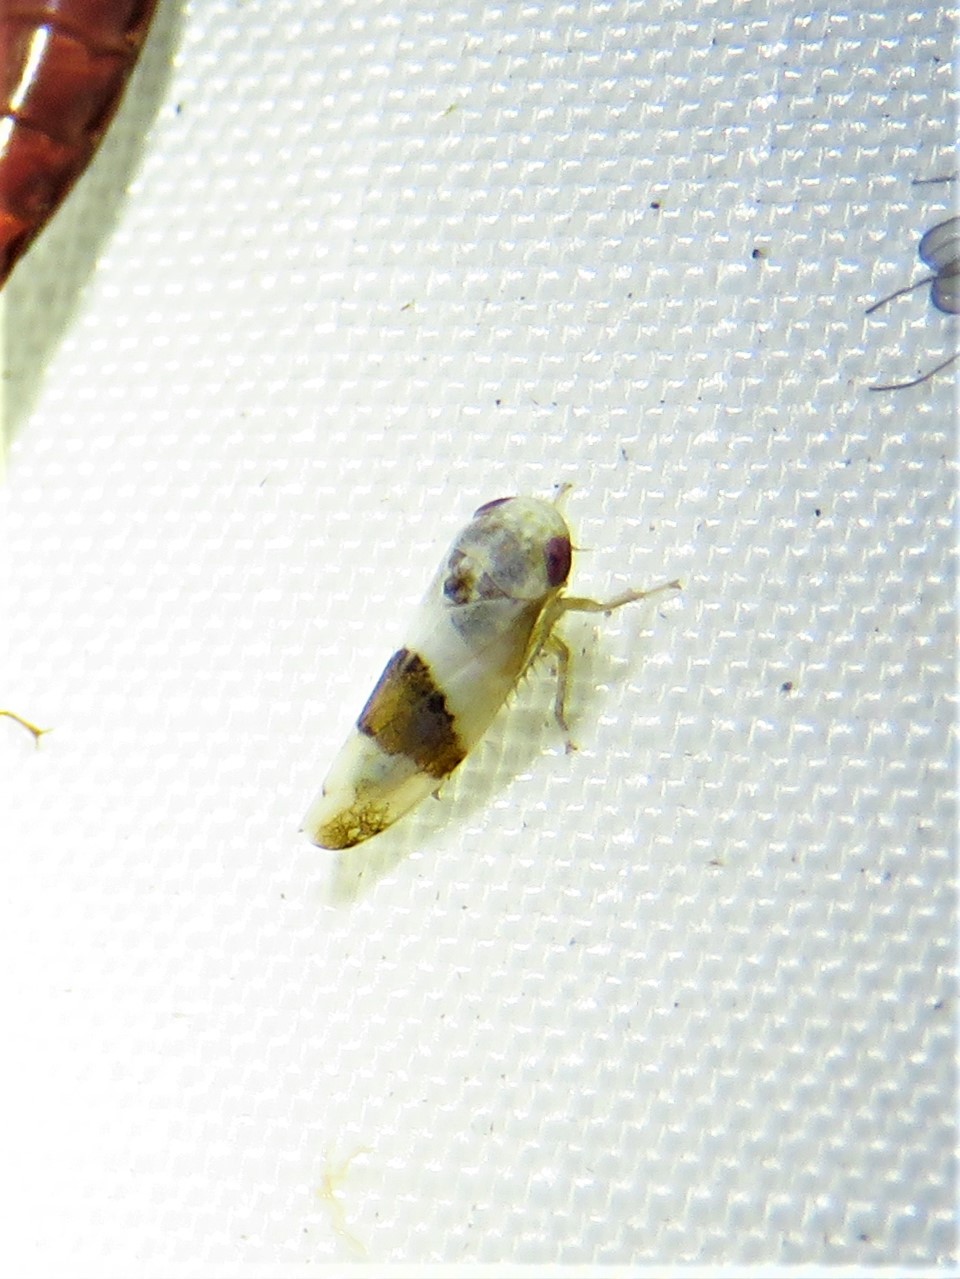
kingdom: Animalia
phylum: Arthropoda
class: Insecta
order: Hemiptera
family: Cicadellidae
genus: Norvellina
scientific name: Norvellina seminuda
